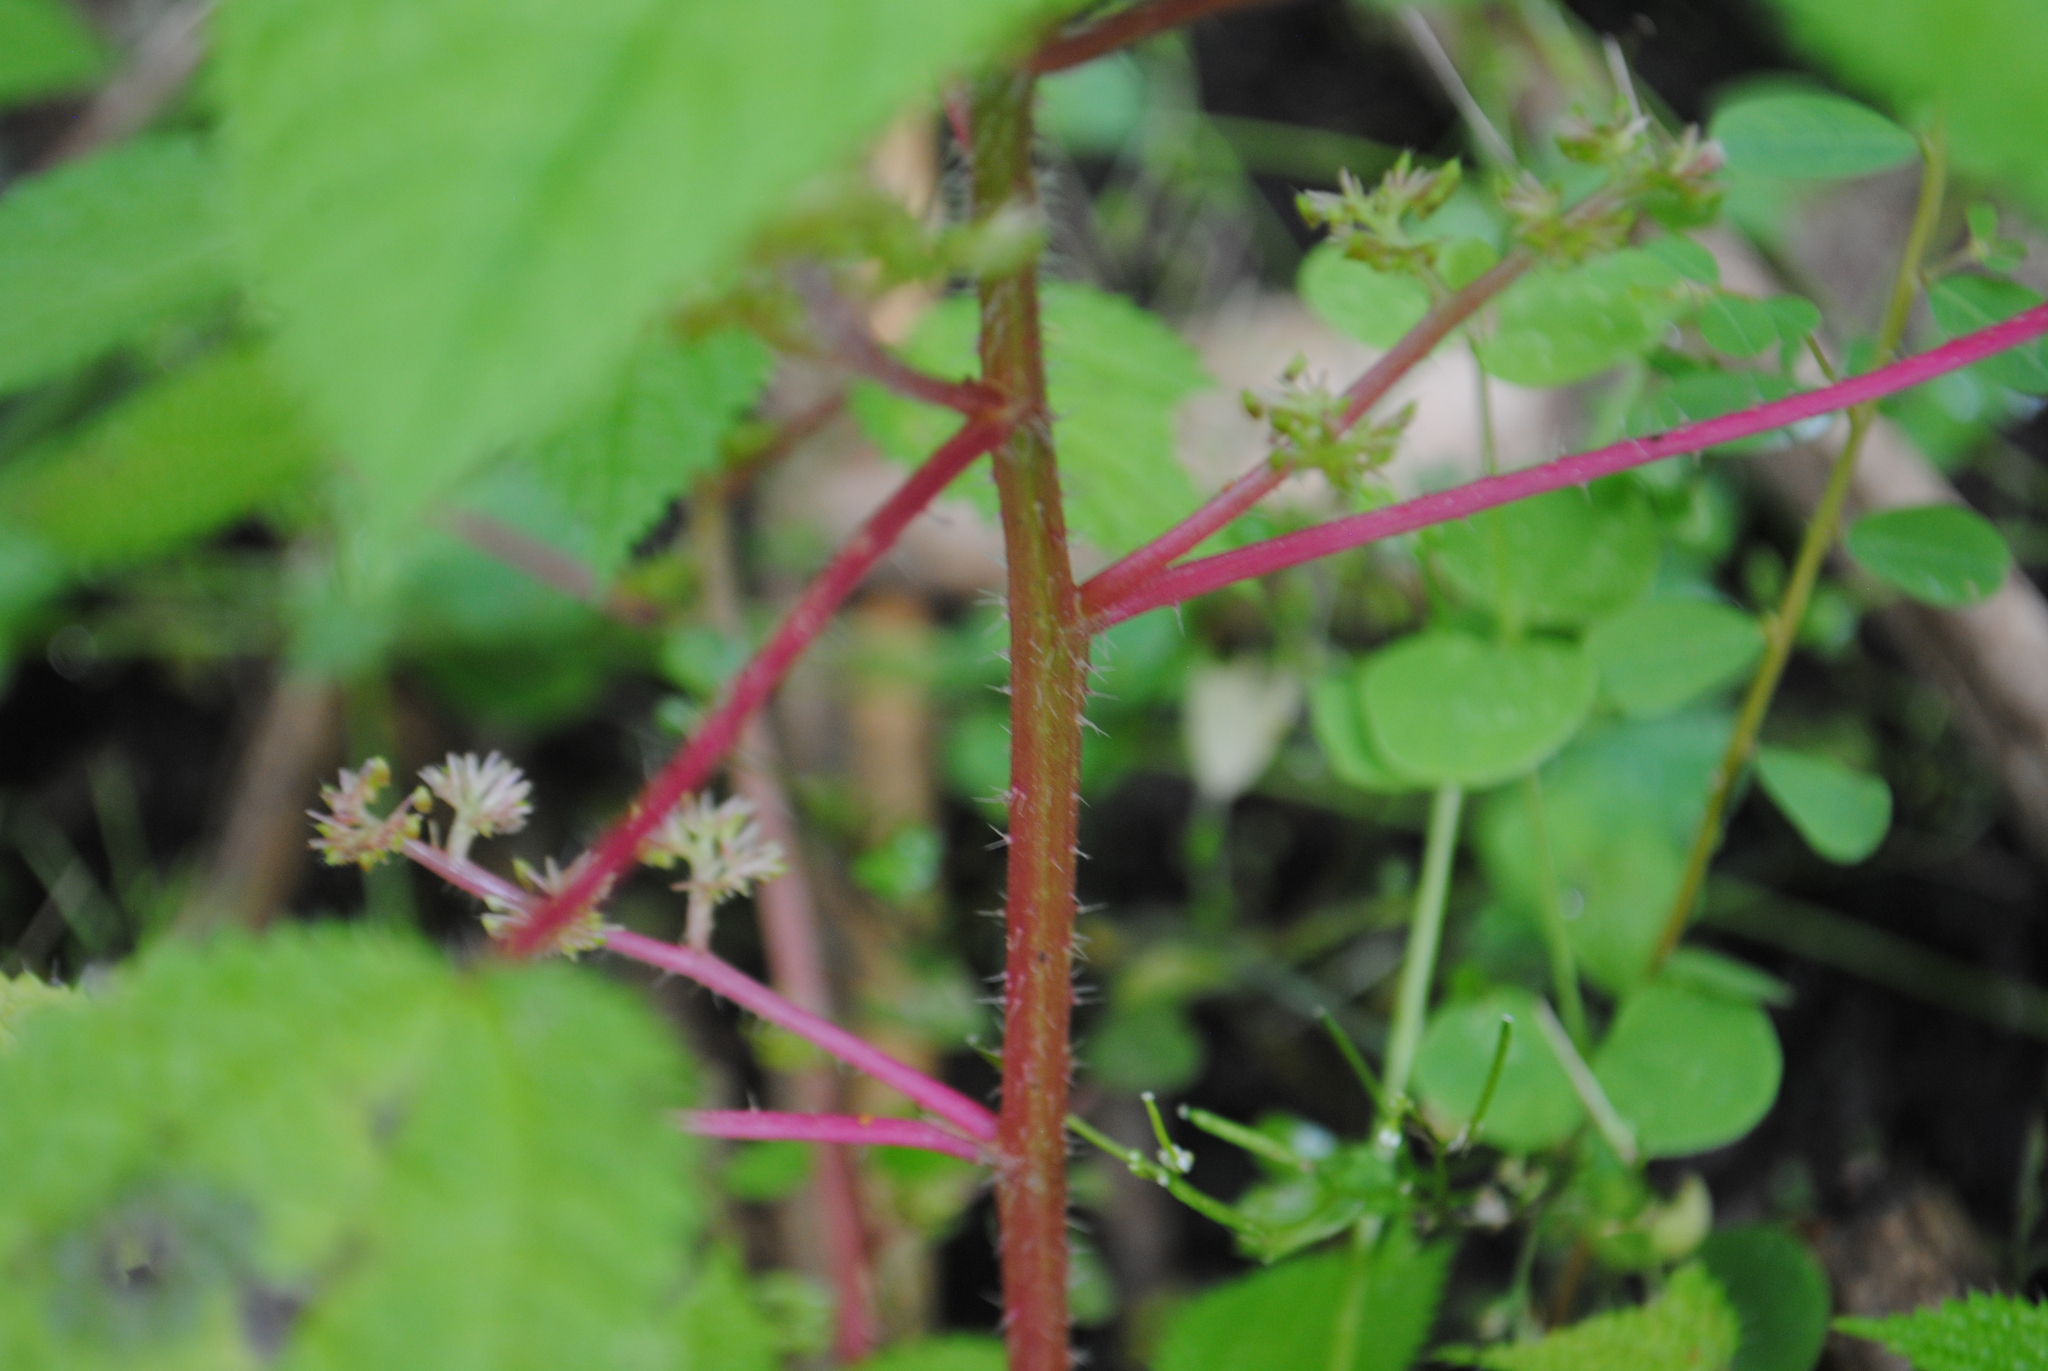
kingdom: Plantae
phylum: Tracheophyta
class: Magnoliopsida
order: Rosales
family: Urticaceae
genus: Laportea
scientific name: Laportea aestuans
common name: West indian woodnettle
